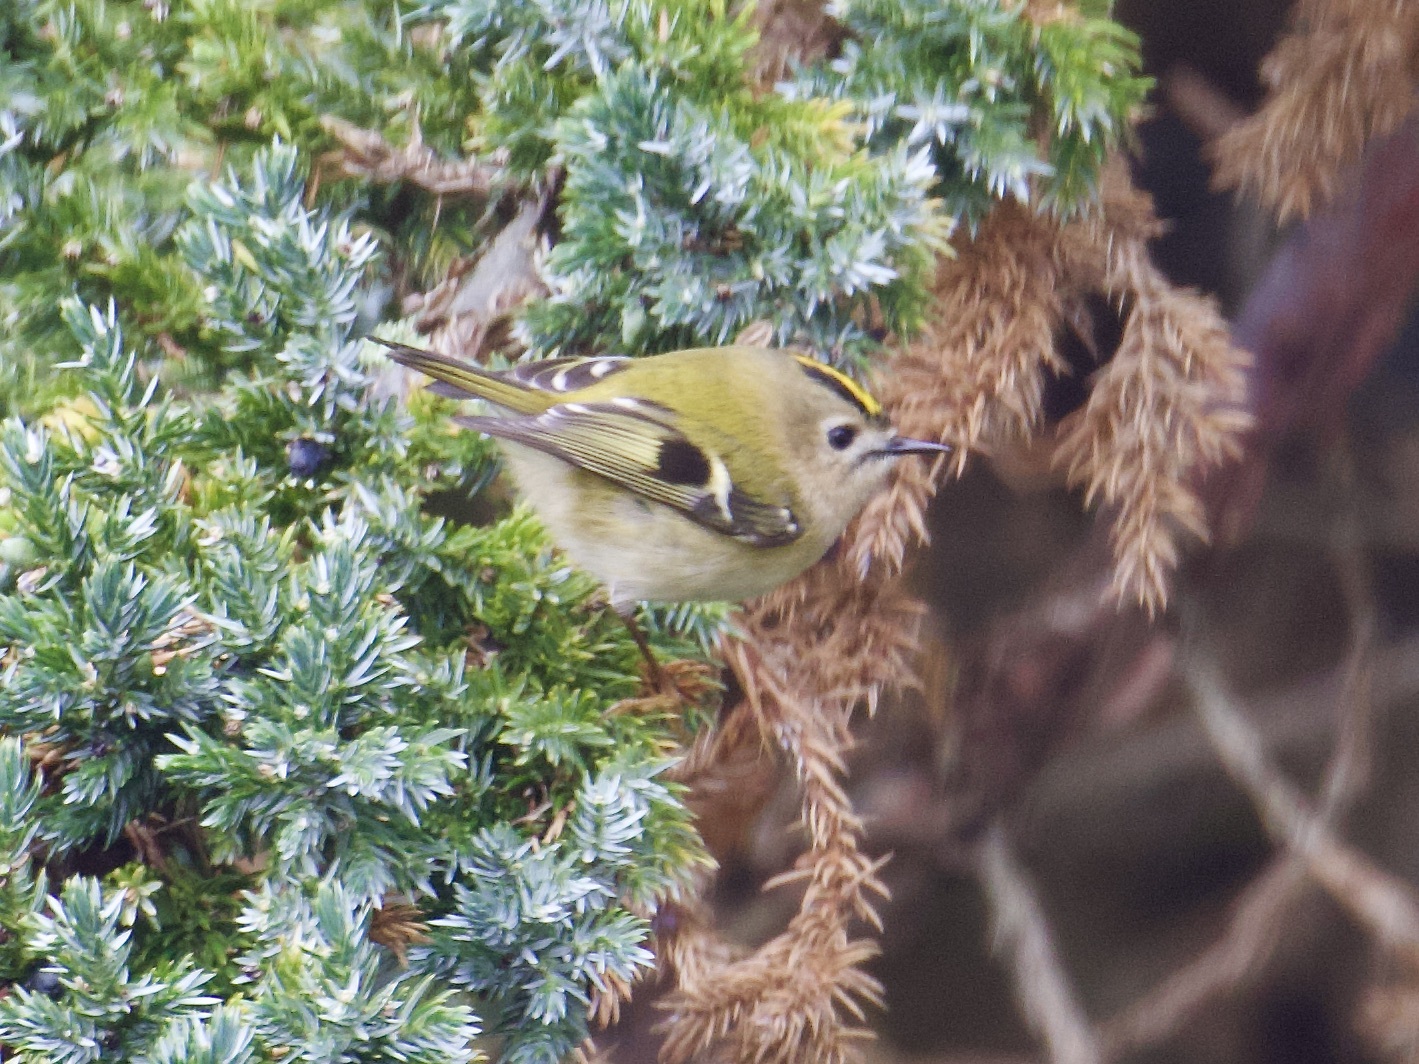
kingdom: Animalia
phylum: Chordata
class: Aves
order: Passeriformes
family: Regulidae
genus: Regulus
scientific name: Regulus regulus
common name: Goldcrest
